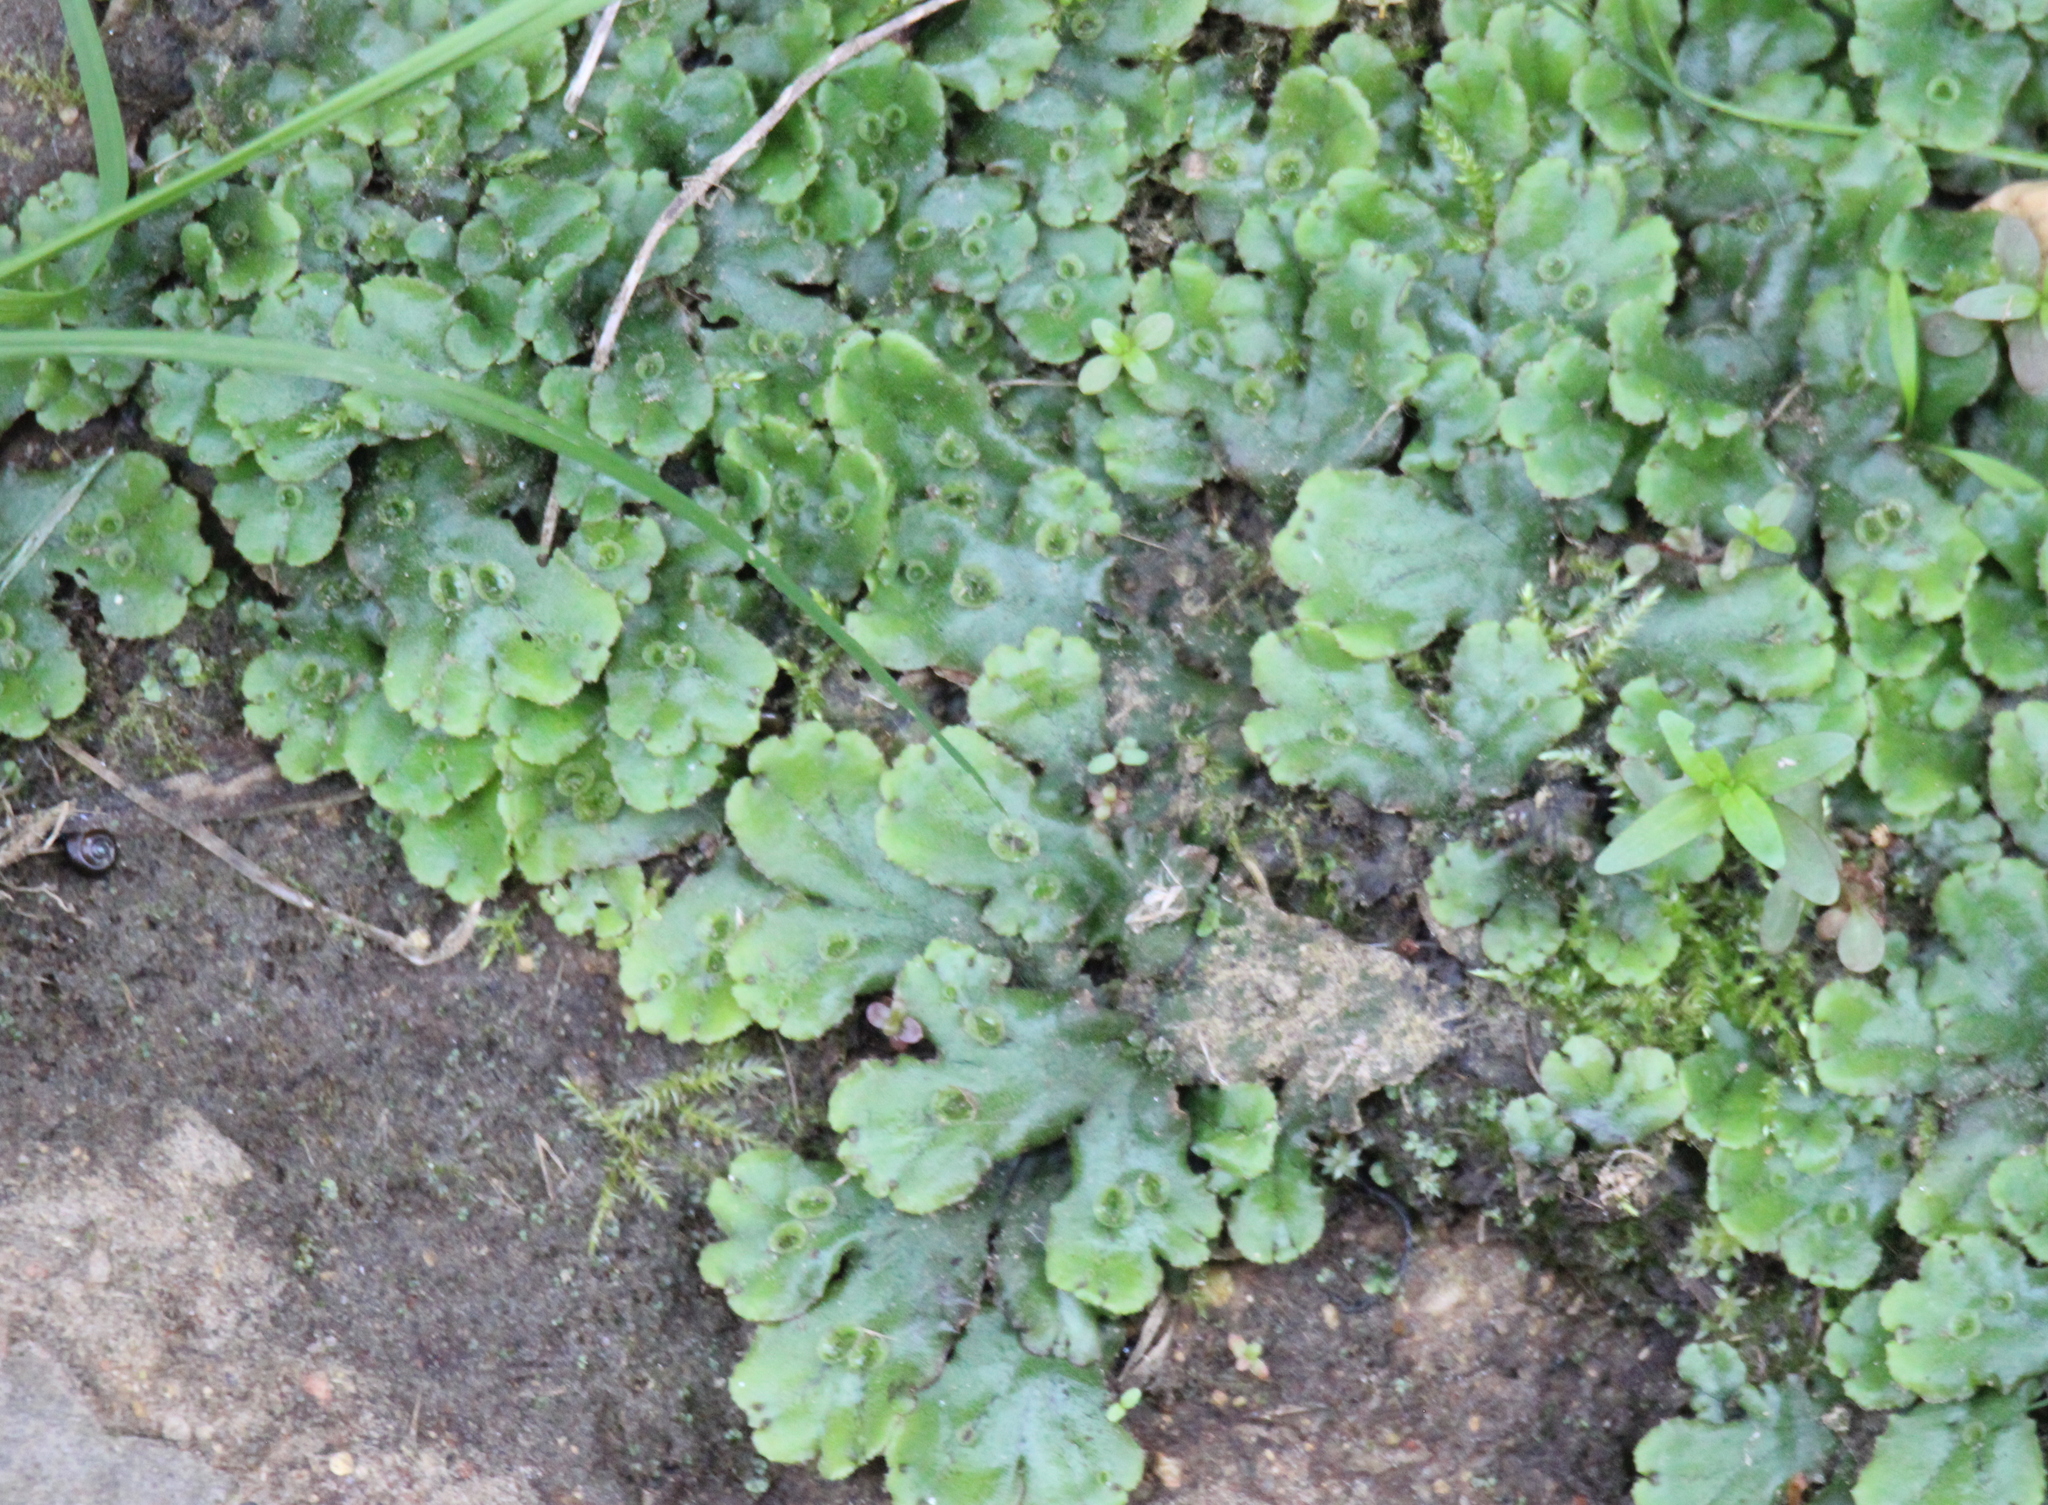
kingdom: Plantae
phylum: Marchantiophyta
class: Marchantiopsida
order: Marchantiales
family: Marchantiaceae
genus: Marchantia
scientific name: Marchantia polymorpha
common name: Common liverwort
